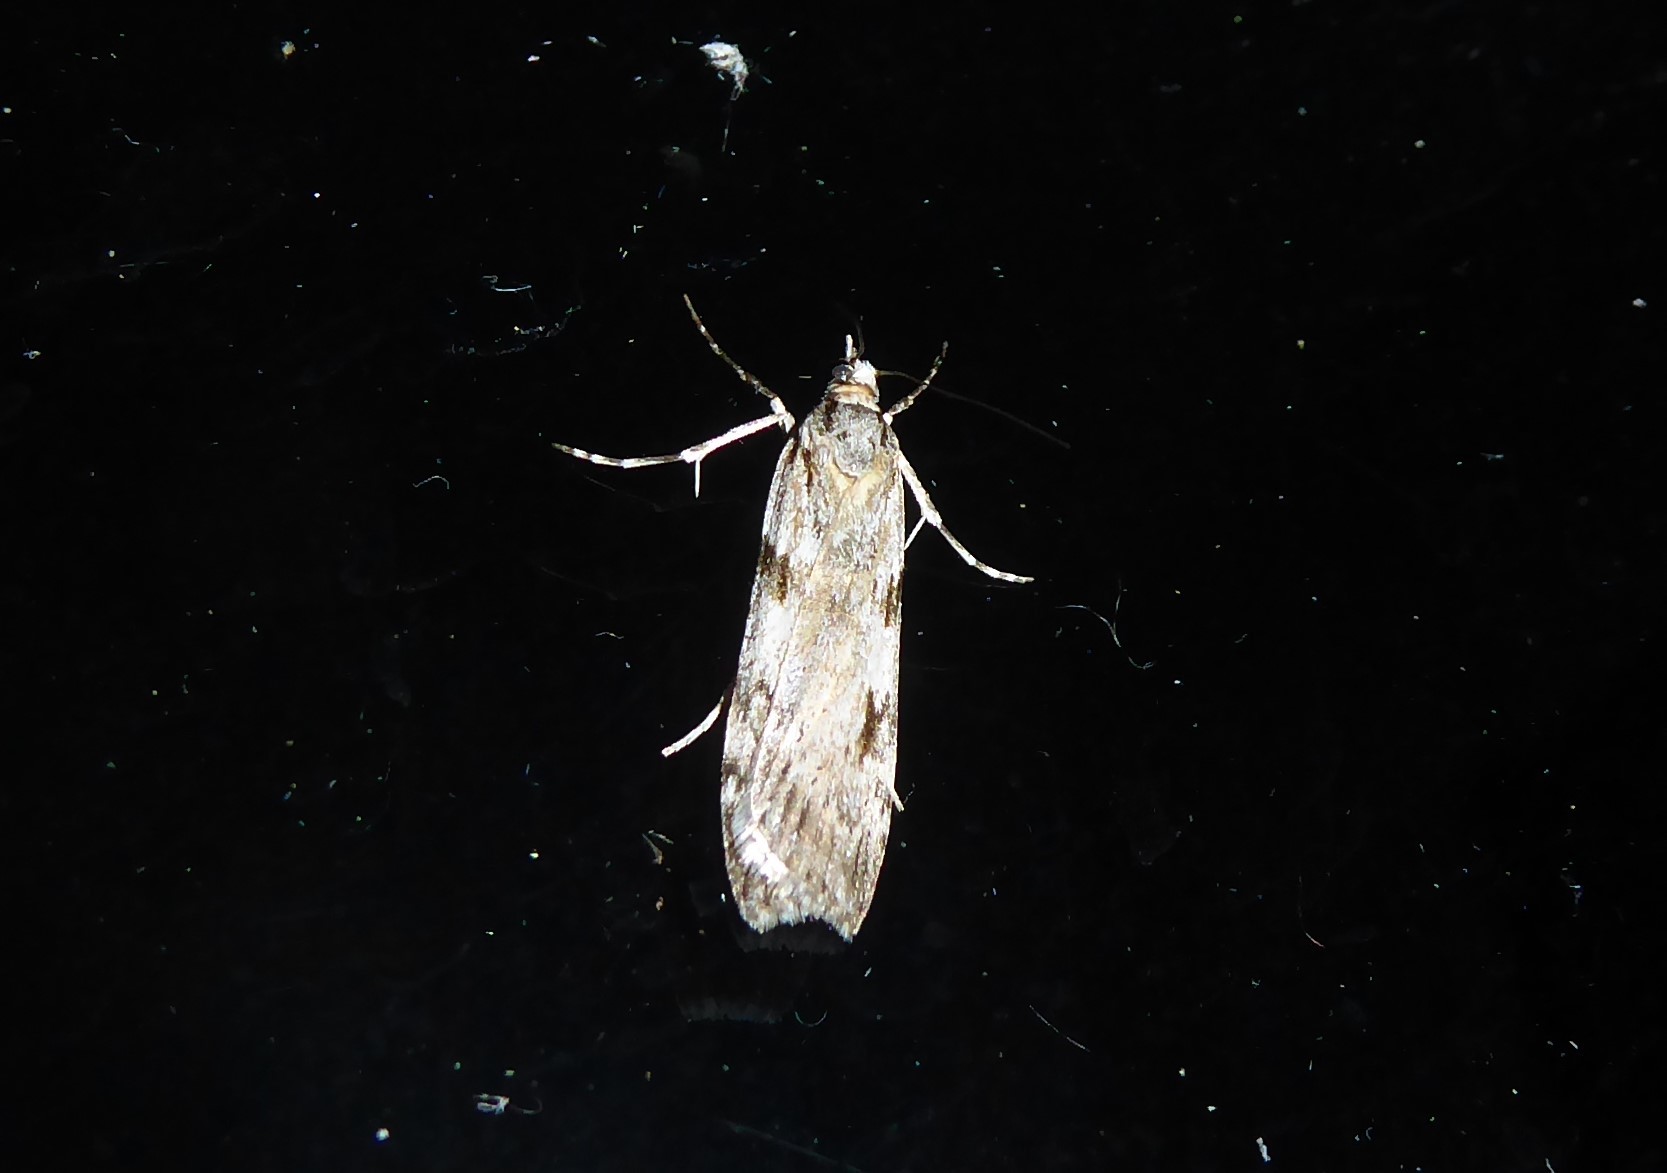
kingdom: Animalia
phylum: Arthropoda
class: Insecta
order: Lepidoptera
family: Crambidae
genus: Scoparia
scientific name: Scoparia halopis
